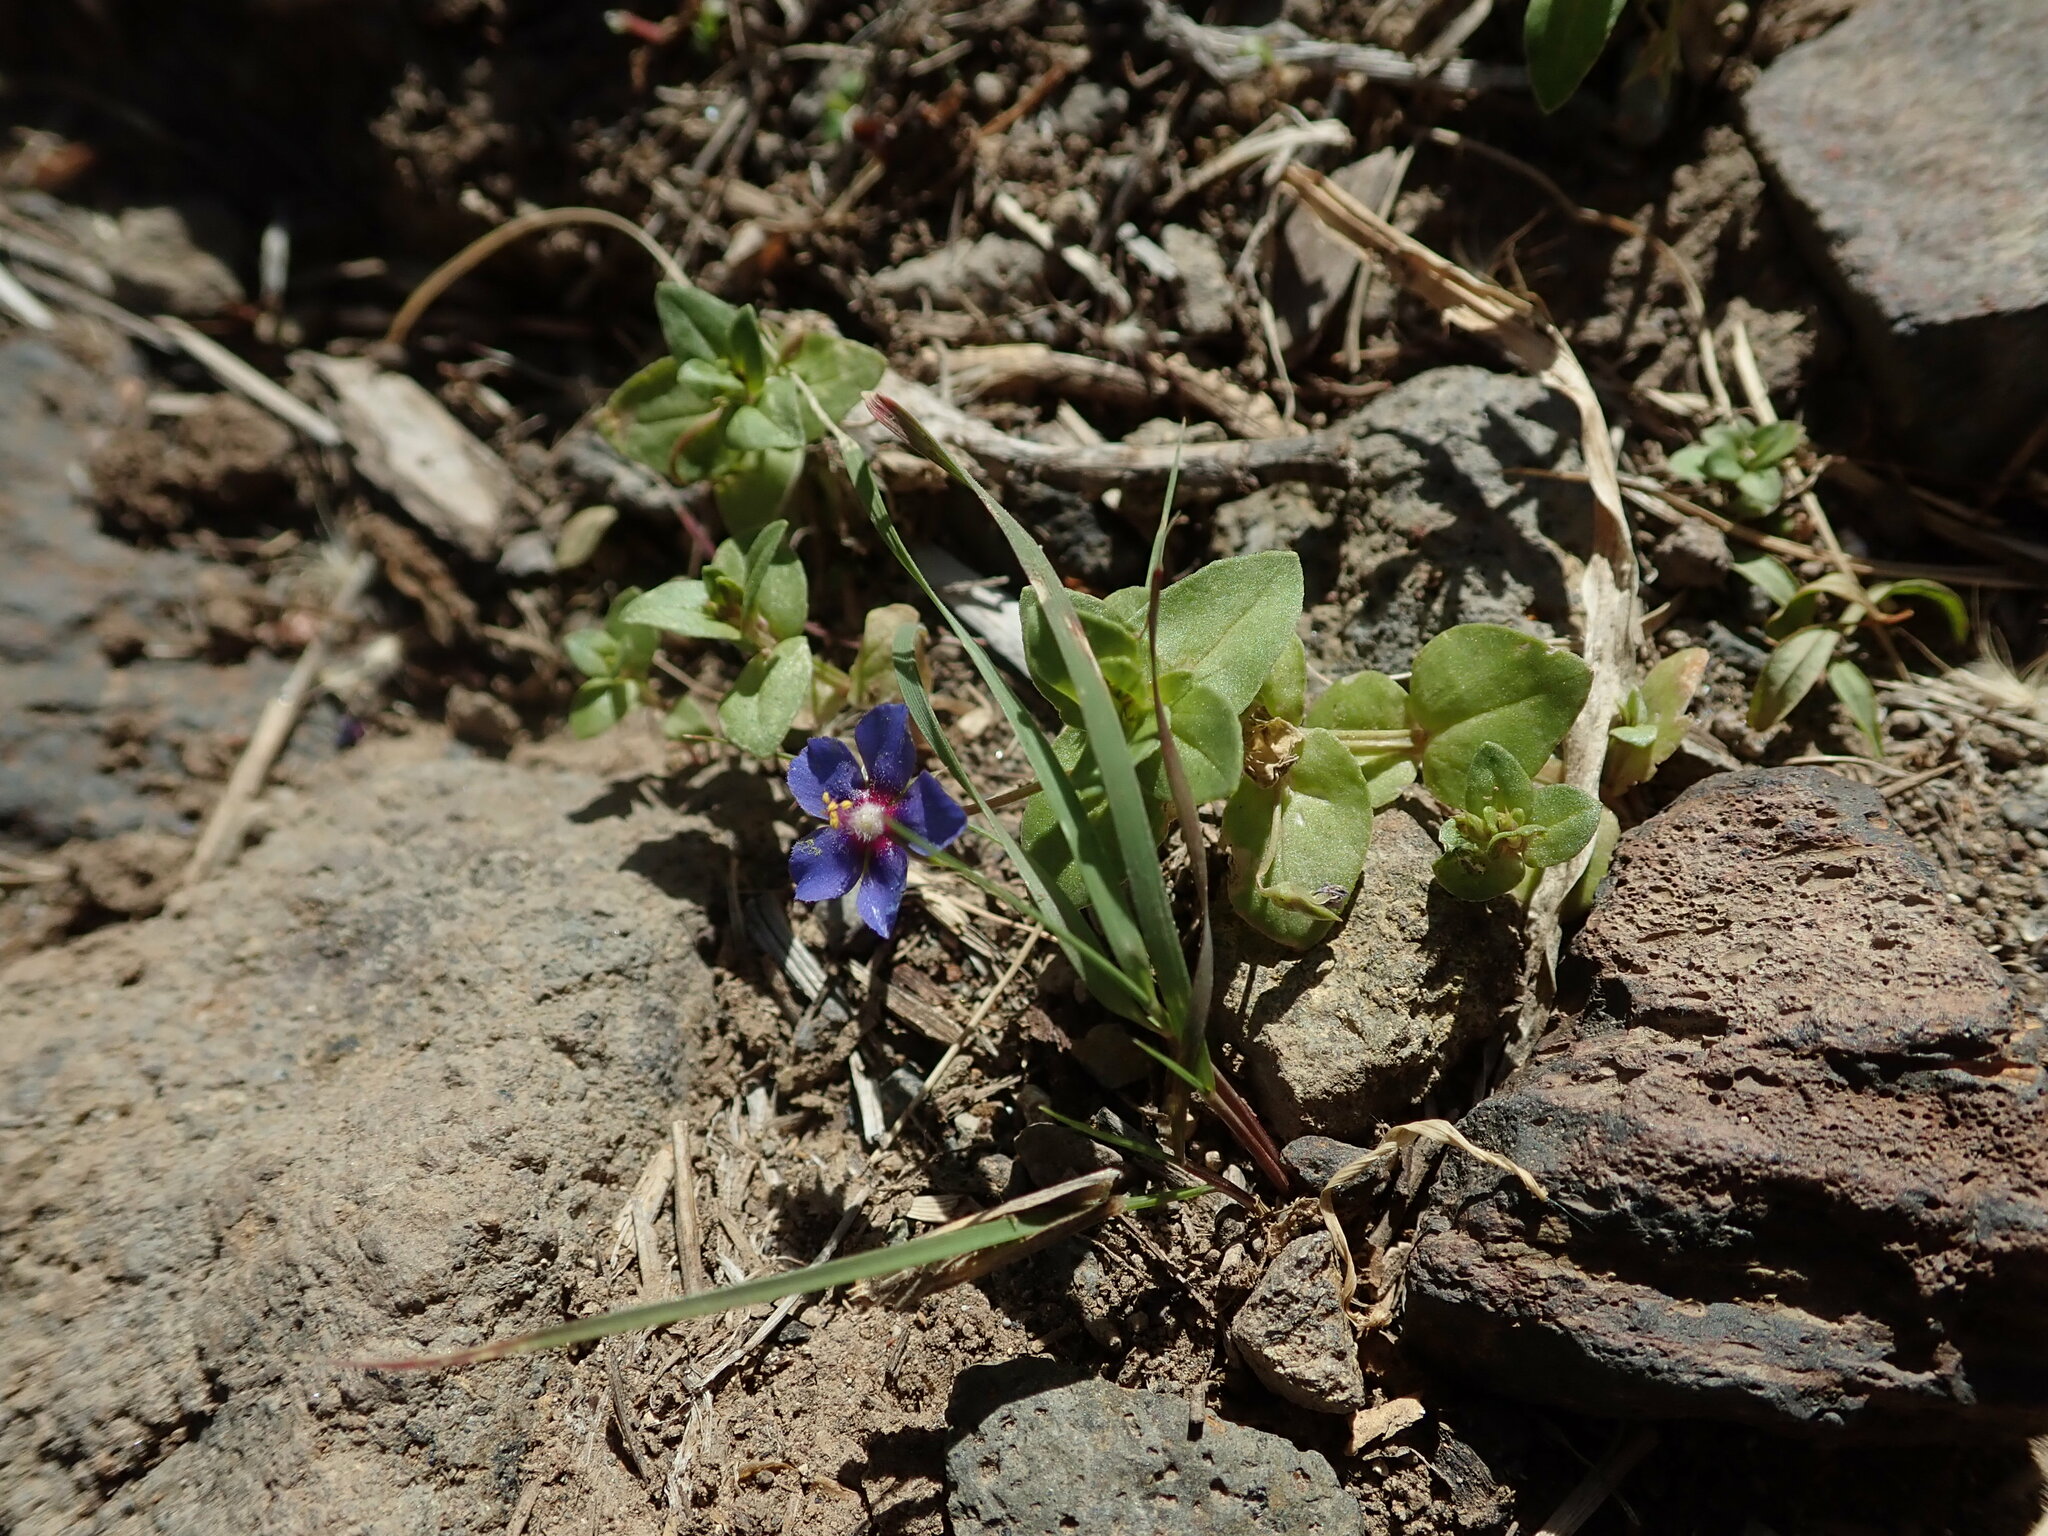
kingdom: Plantae
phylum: Tracheophyta
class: Magnoliopsida
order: Ericales
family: Primulaceae
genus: Lysimachia
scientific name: Lysimachia loeflingii
